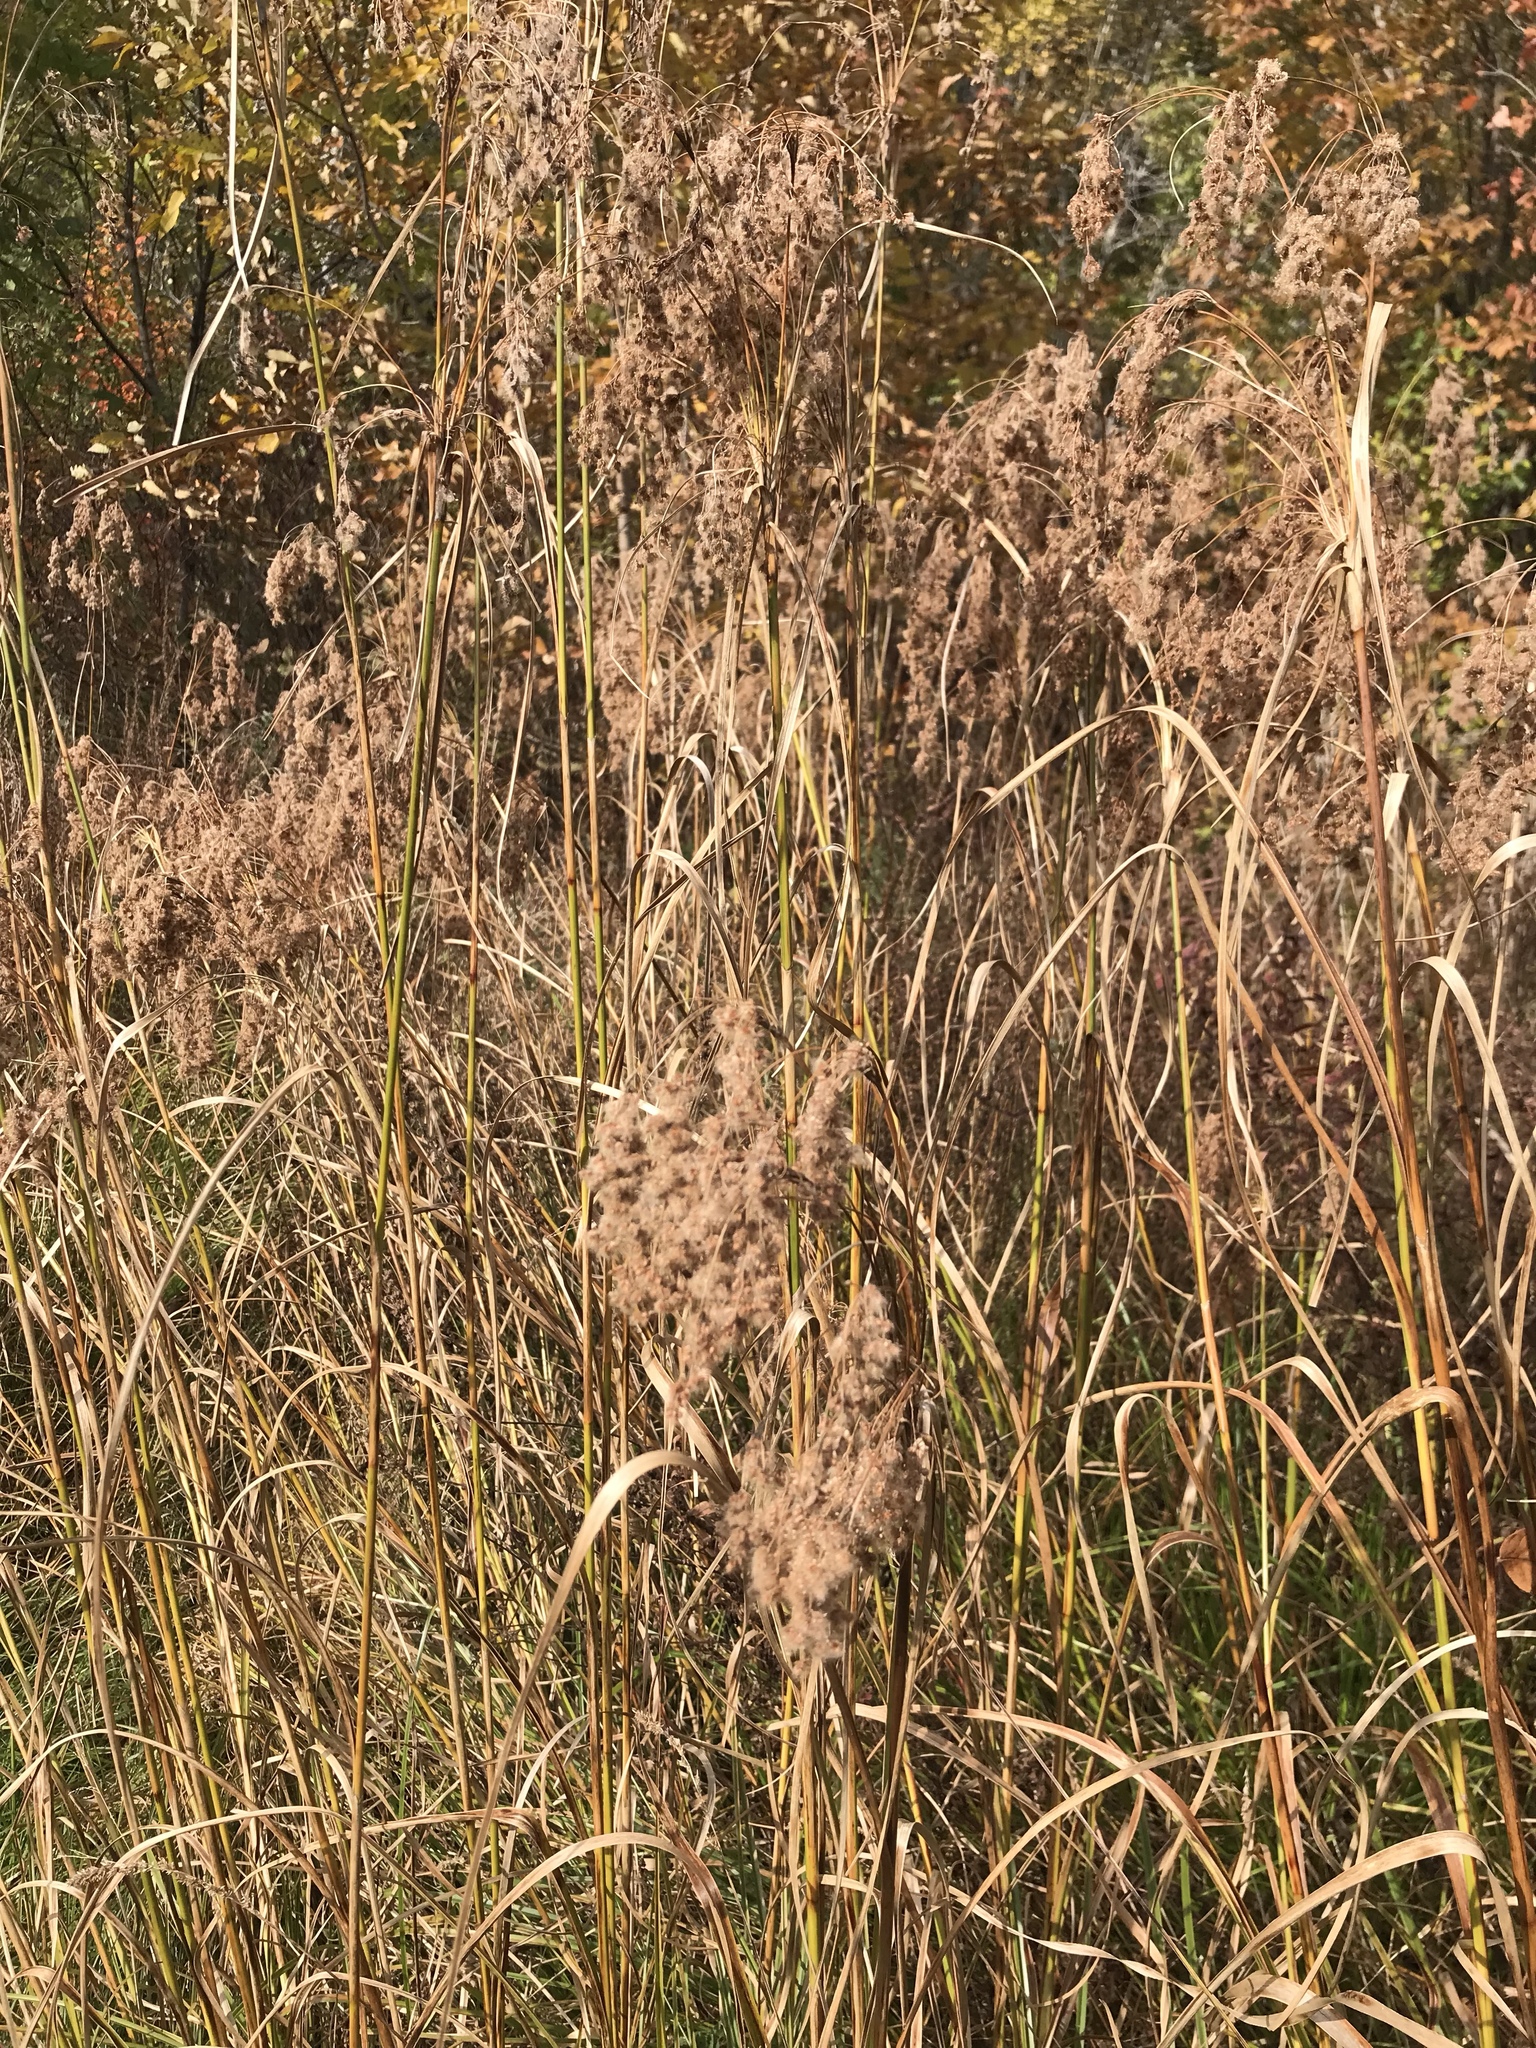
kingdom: Plantae
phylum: Tracheophyta
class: Liliopsida
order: Poales
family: Cyperaceae
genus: Scirpus
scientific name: Scirpus cyperinus
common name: Black-sheathed bulrush
